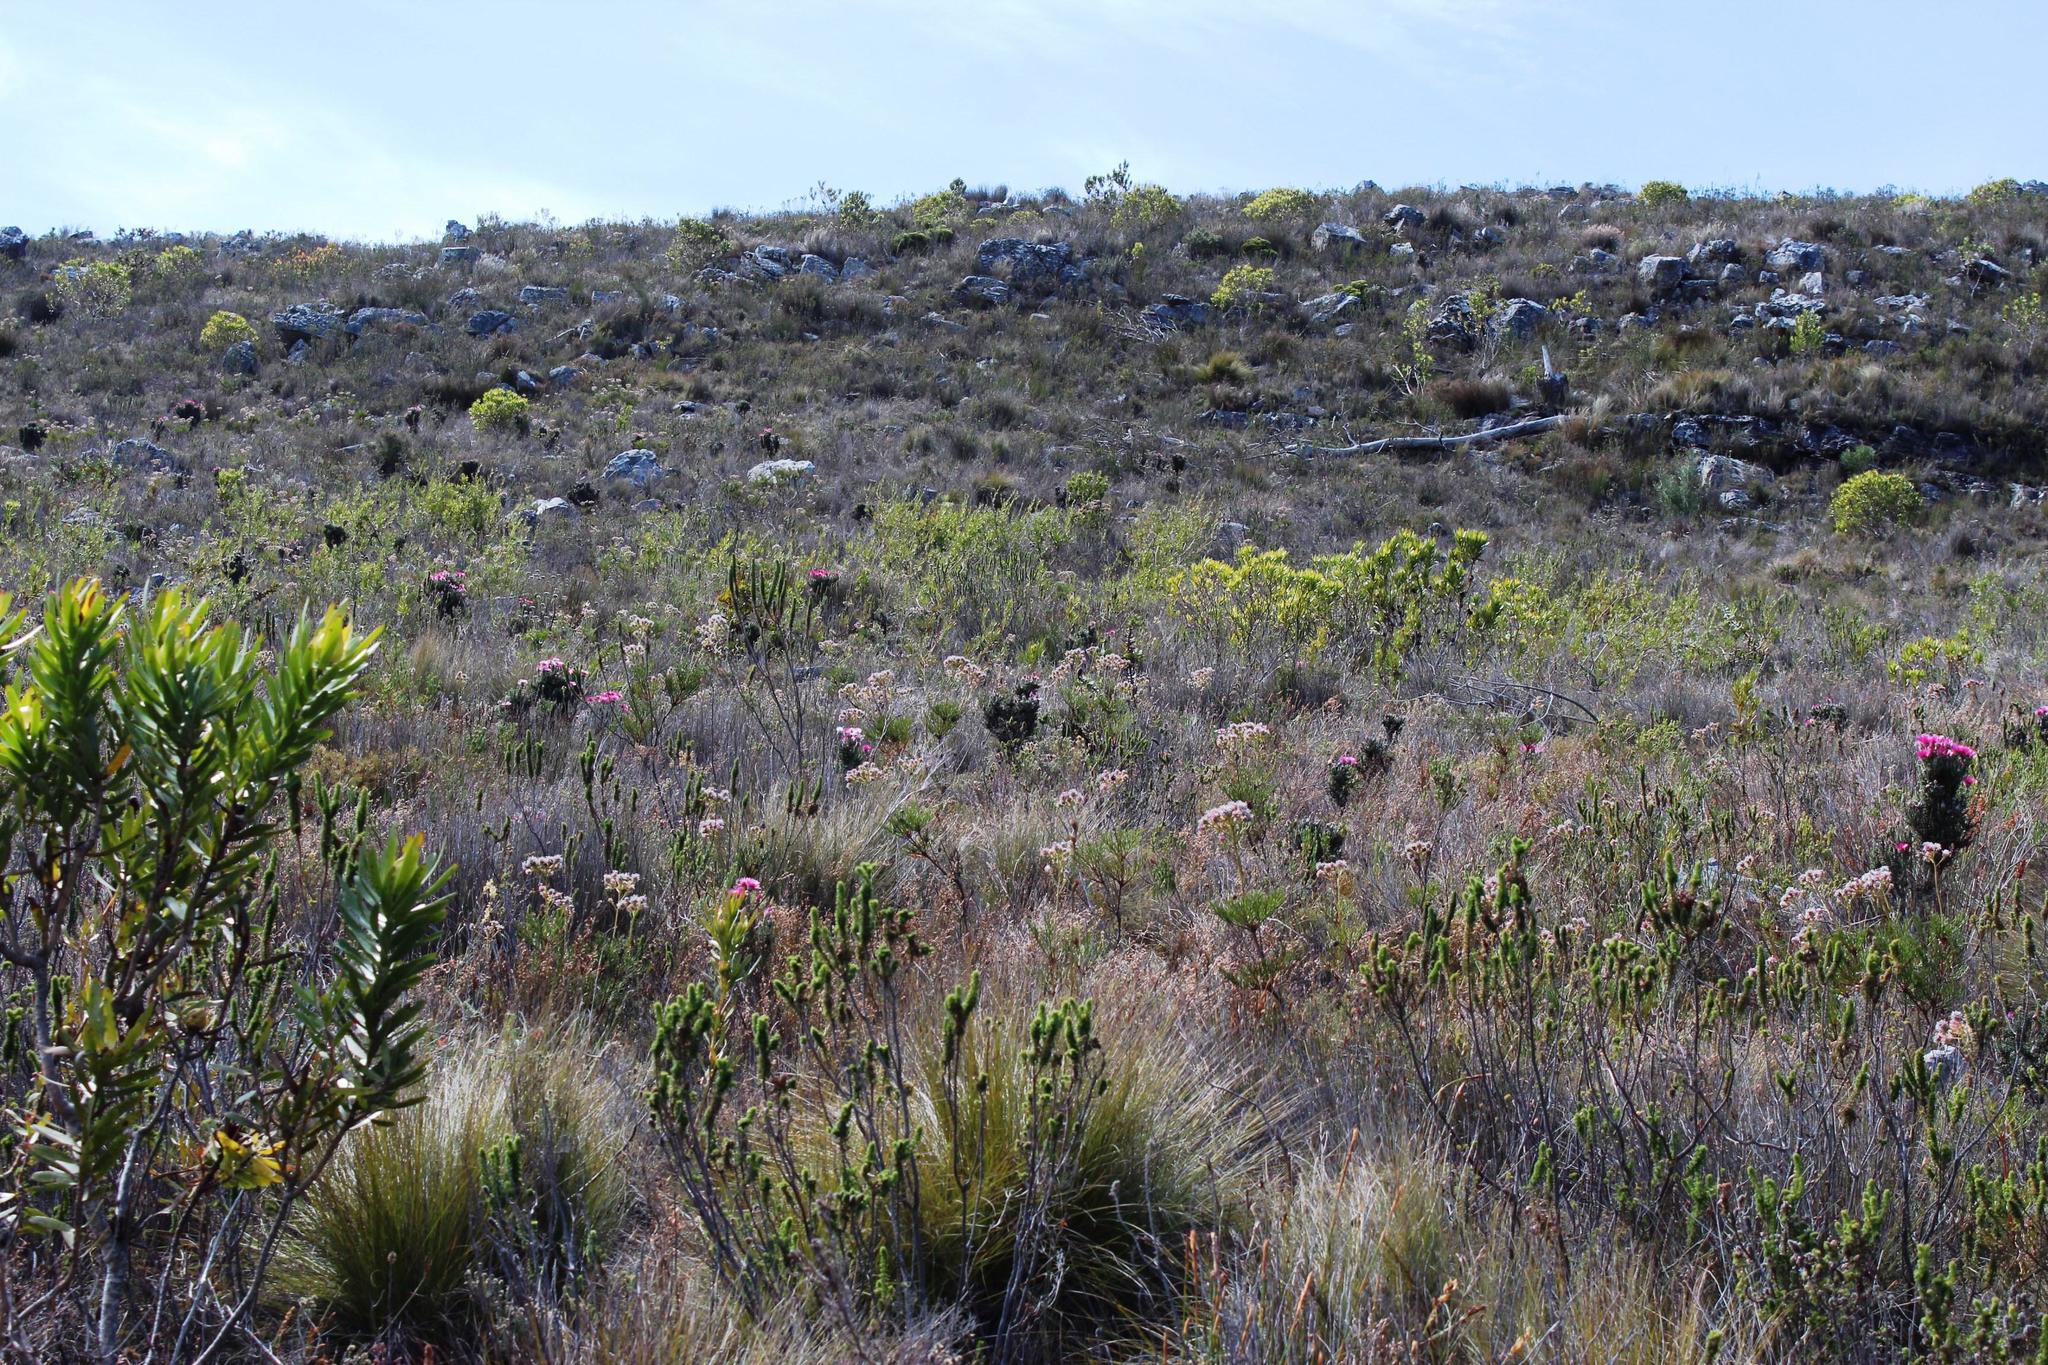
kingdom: Plantae
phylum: Tracheophyta
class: Magnoliopsida
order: Proteales
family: Proteaceae
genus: Serruria
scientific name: Serruria elongata
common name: Long-stalk spiderhead
